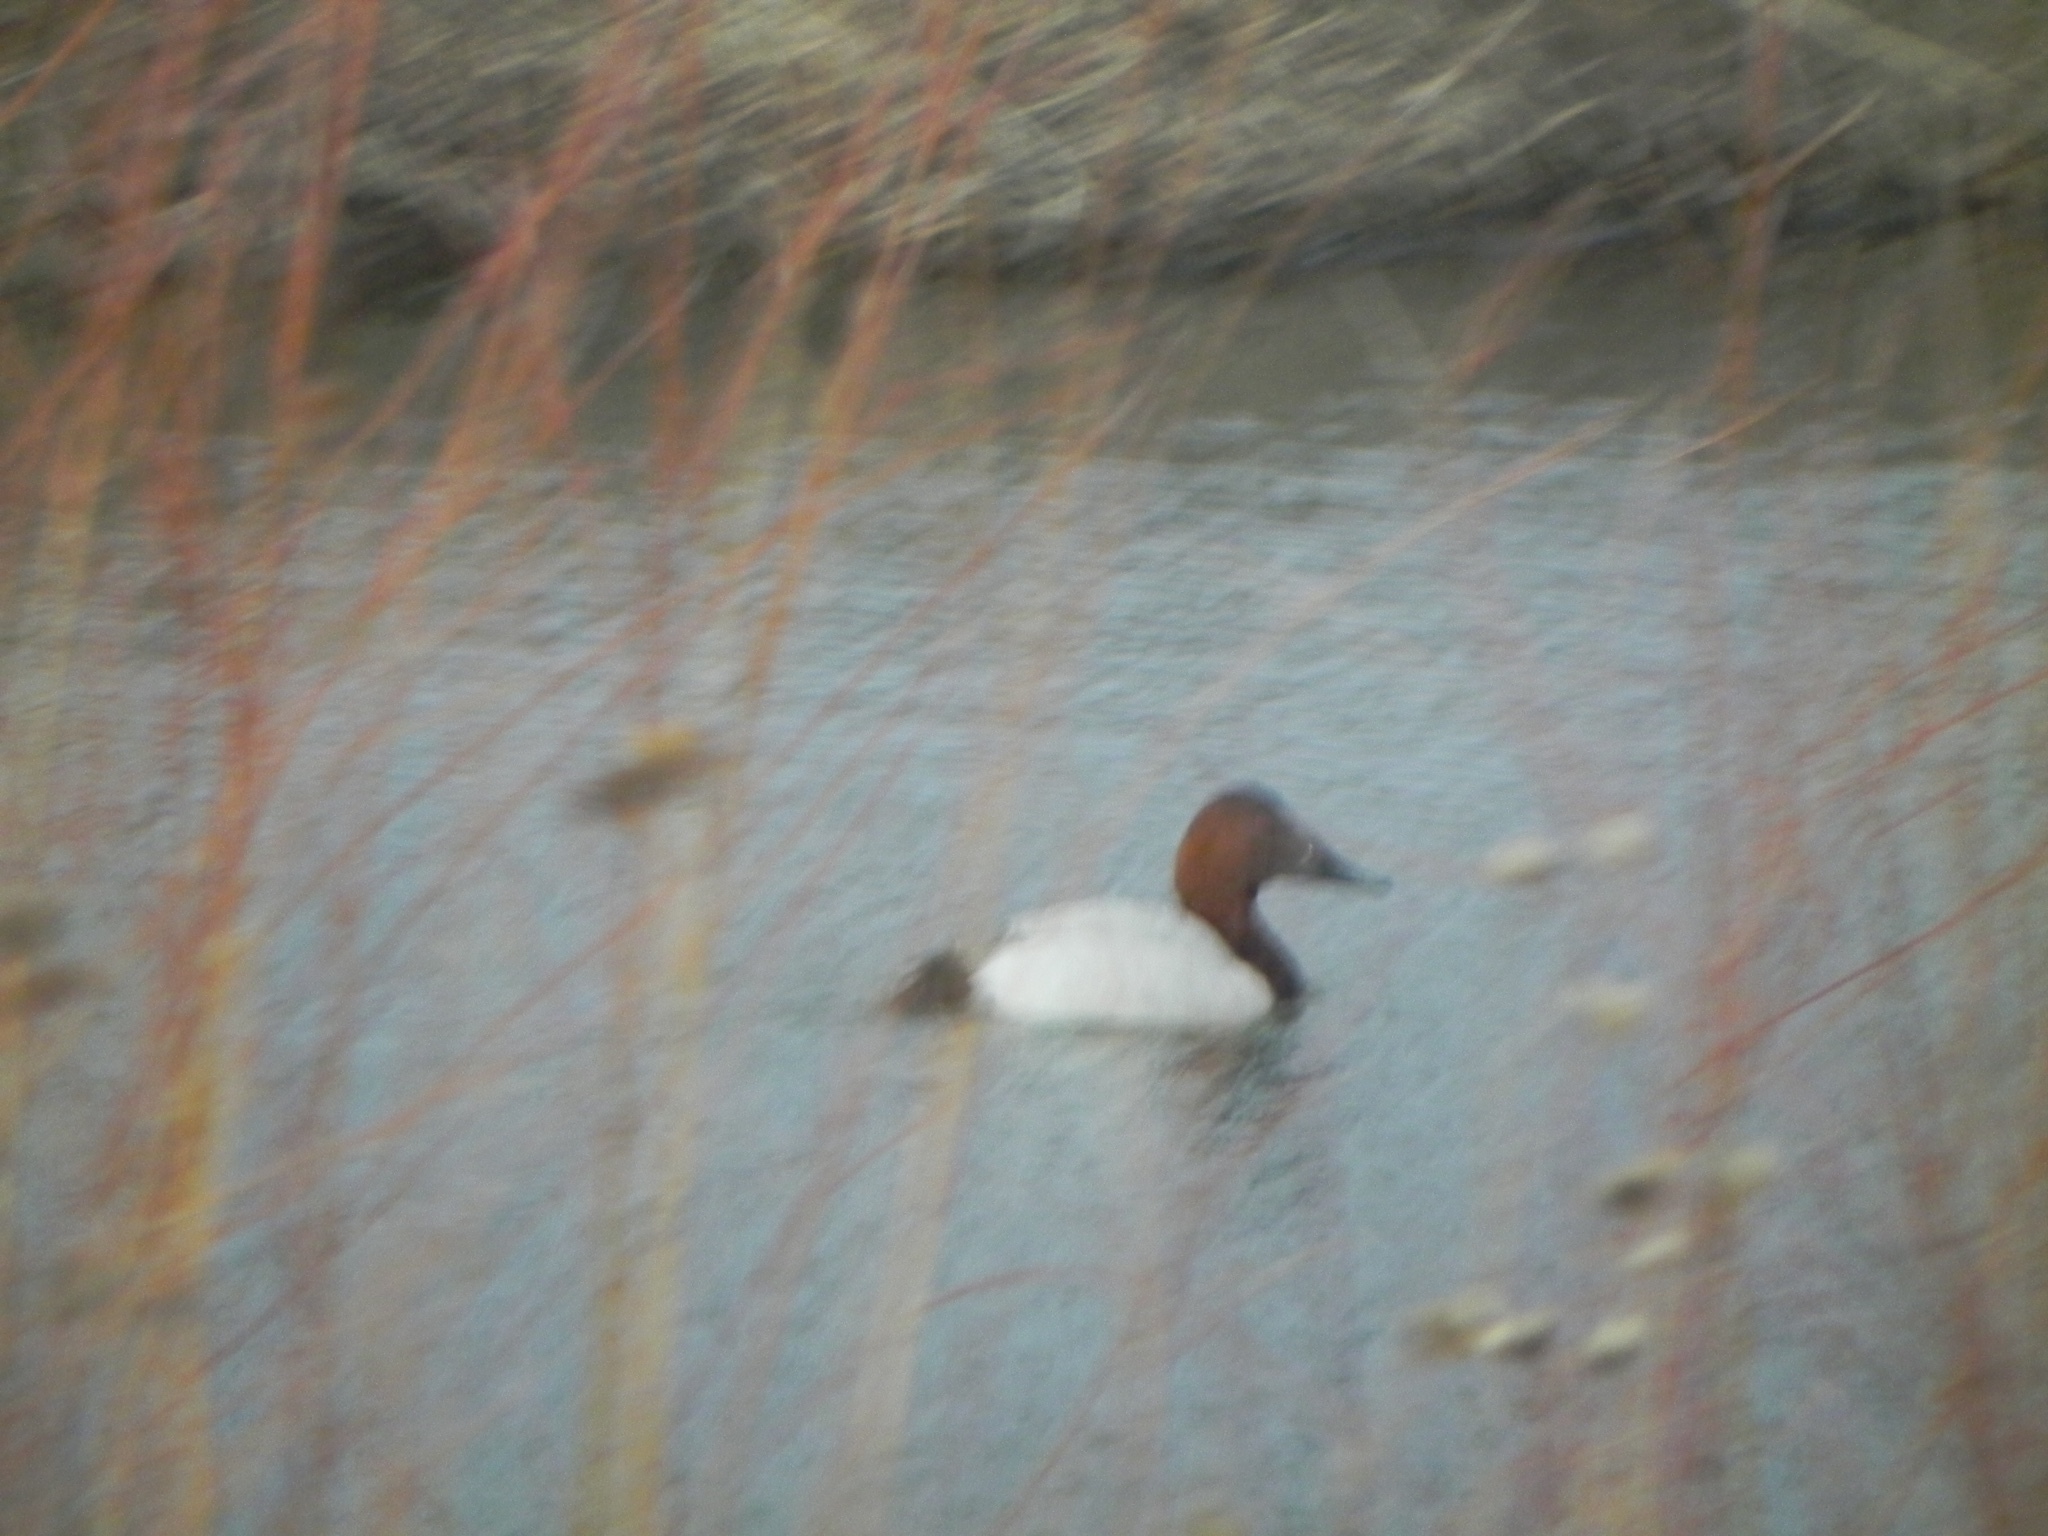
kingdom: Animalia
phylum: Chordata
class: Aves
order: Anseriformes
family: Anatidae
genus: Aythya
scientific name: Aythya valisineria
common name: Canvasback
